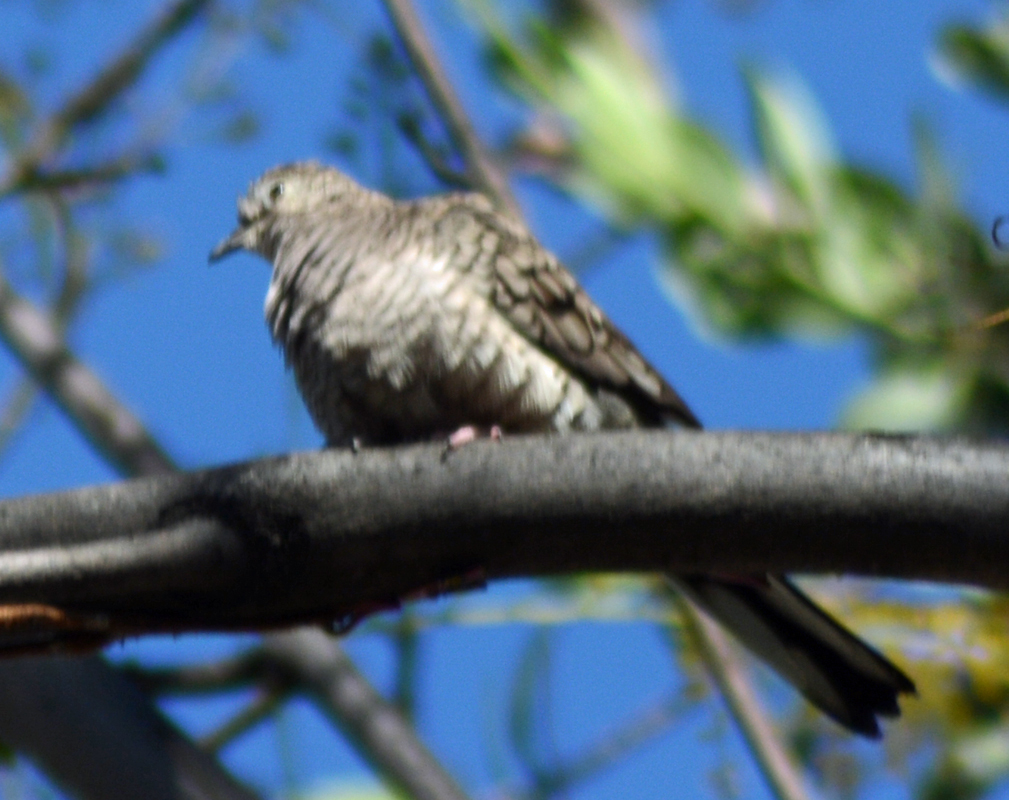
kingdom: Animalia
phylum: Chordata
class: Aves
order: Columbiformes
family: Columbidae
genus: Columbina
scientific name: Columbina inca
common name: Inca dove
